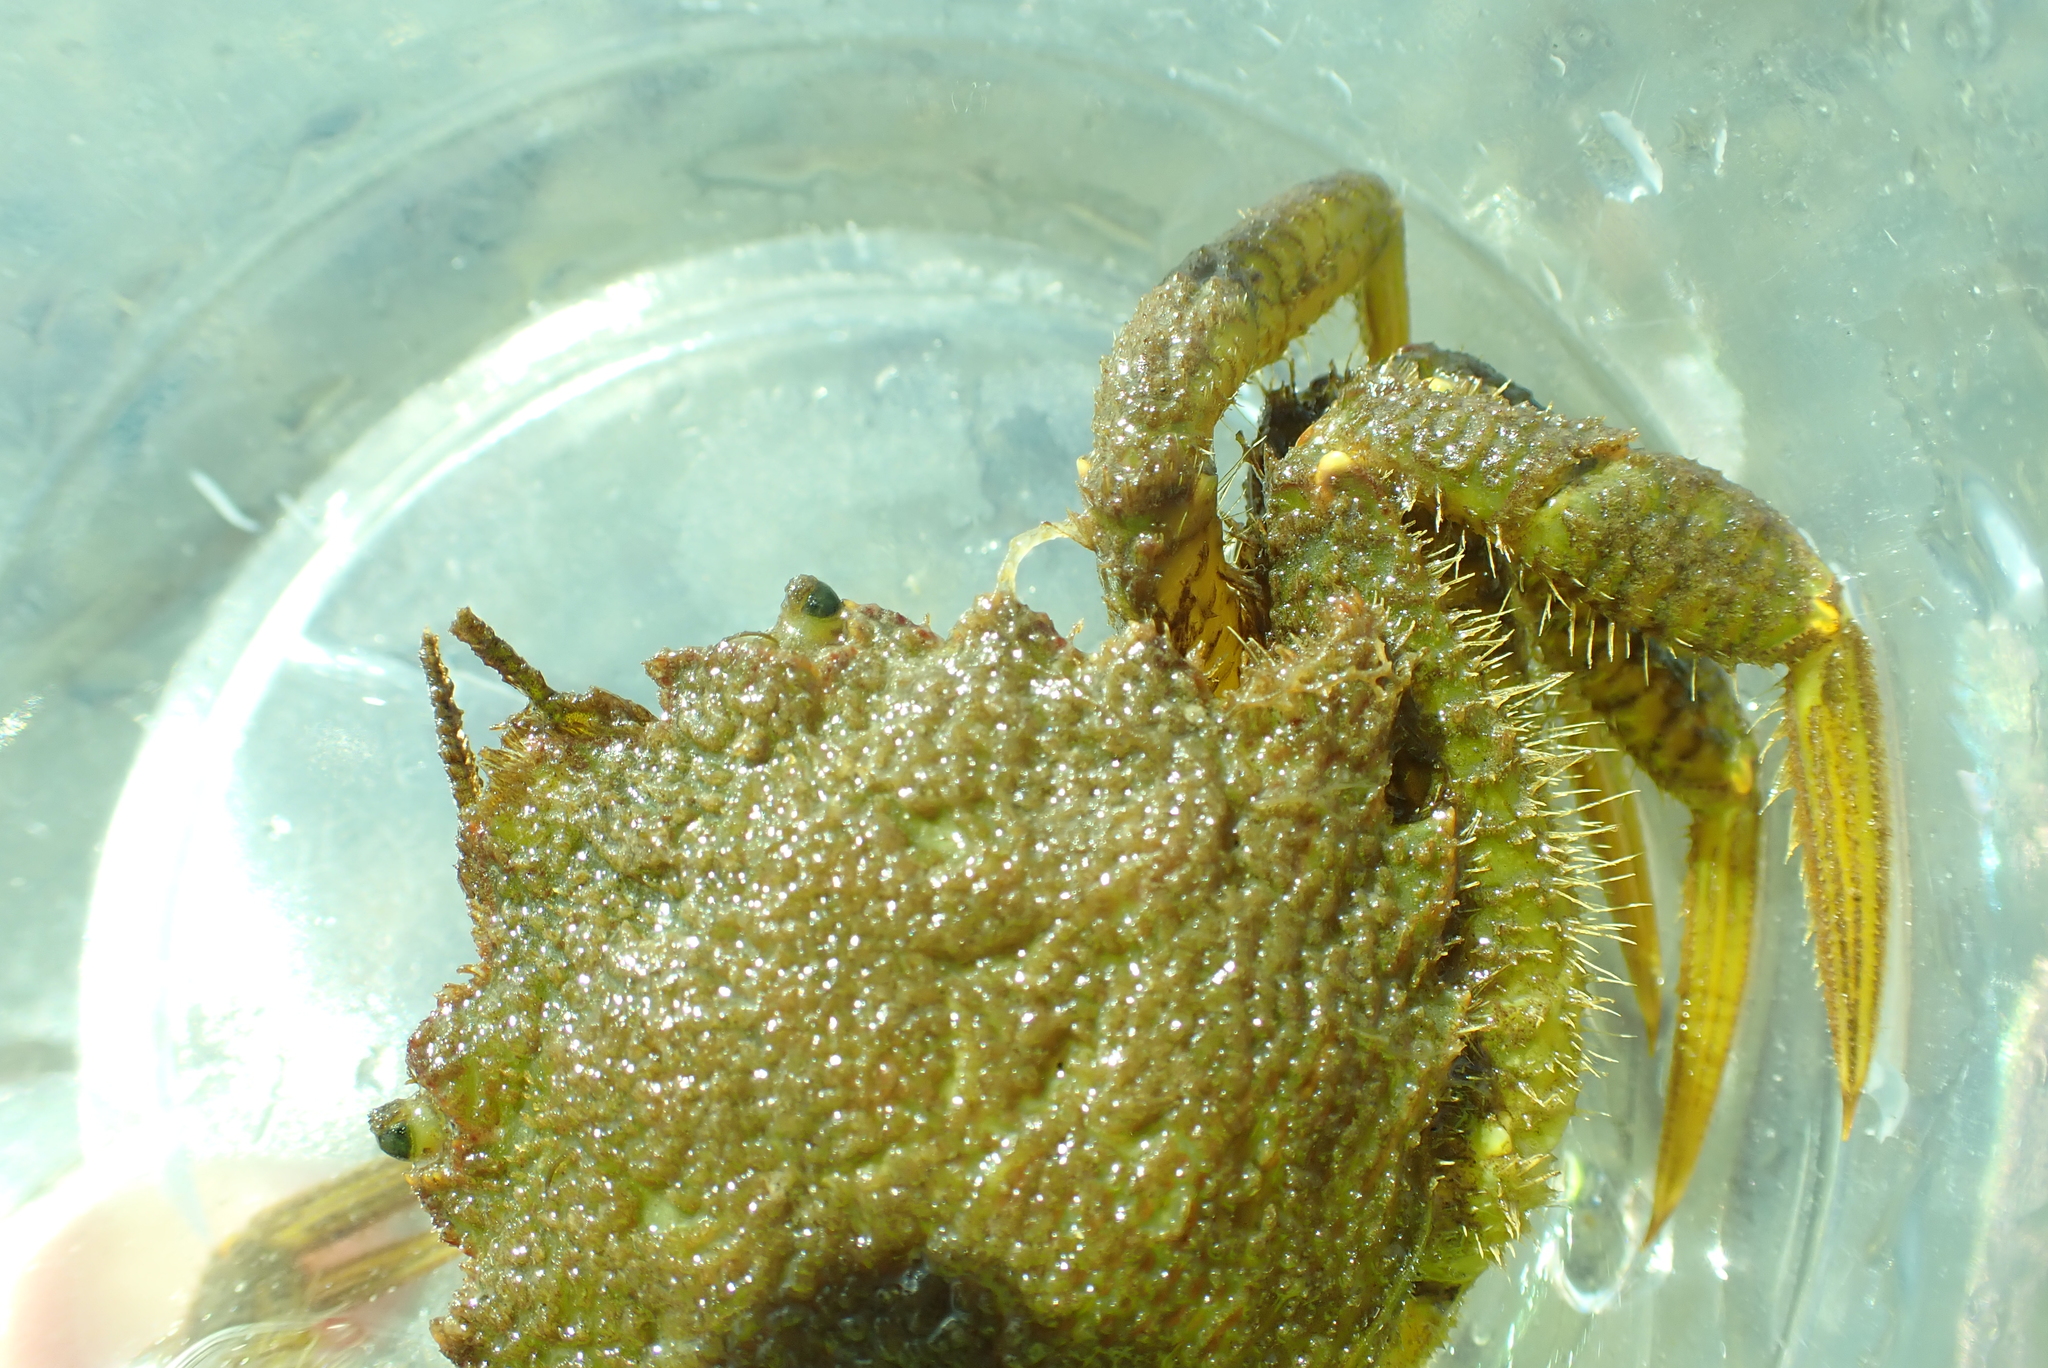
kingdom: Animalia
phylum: Arthropoda
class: Malacostraca
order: Decapoda
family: Cheiragonidae
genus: Telmessus
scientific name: Telmessus cheiragonus
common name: Helmet crab
